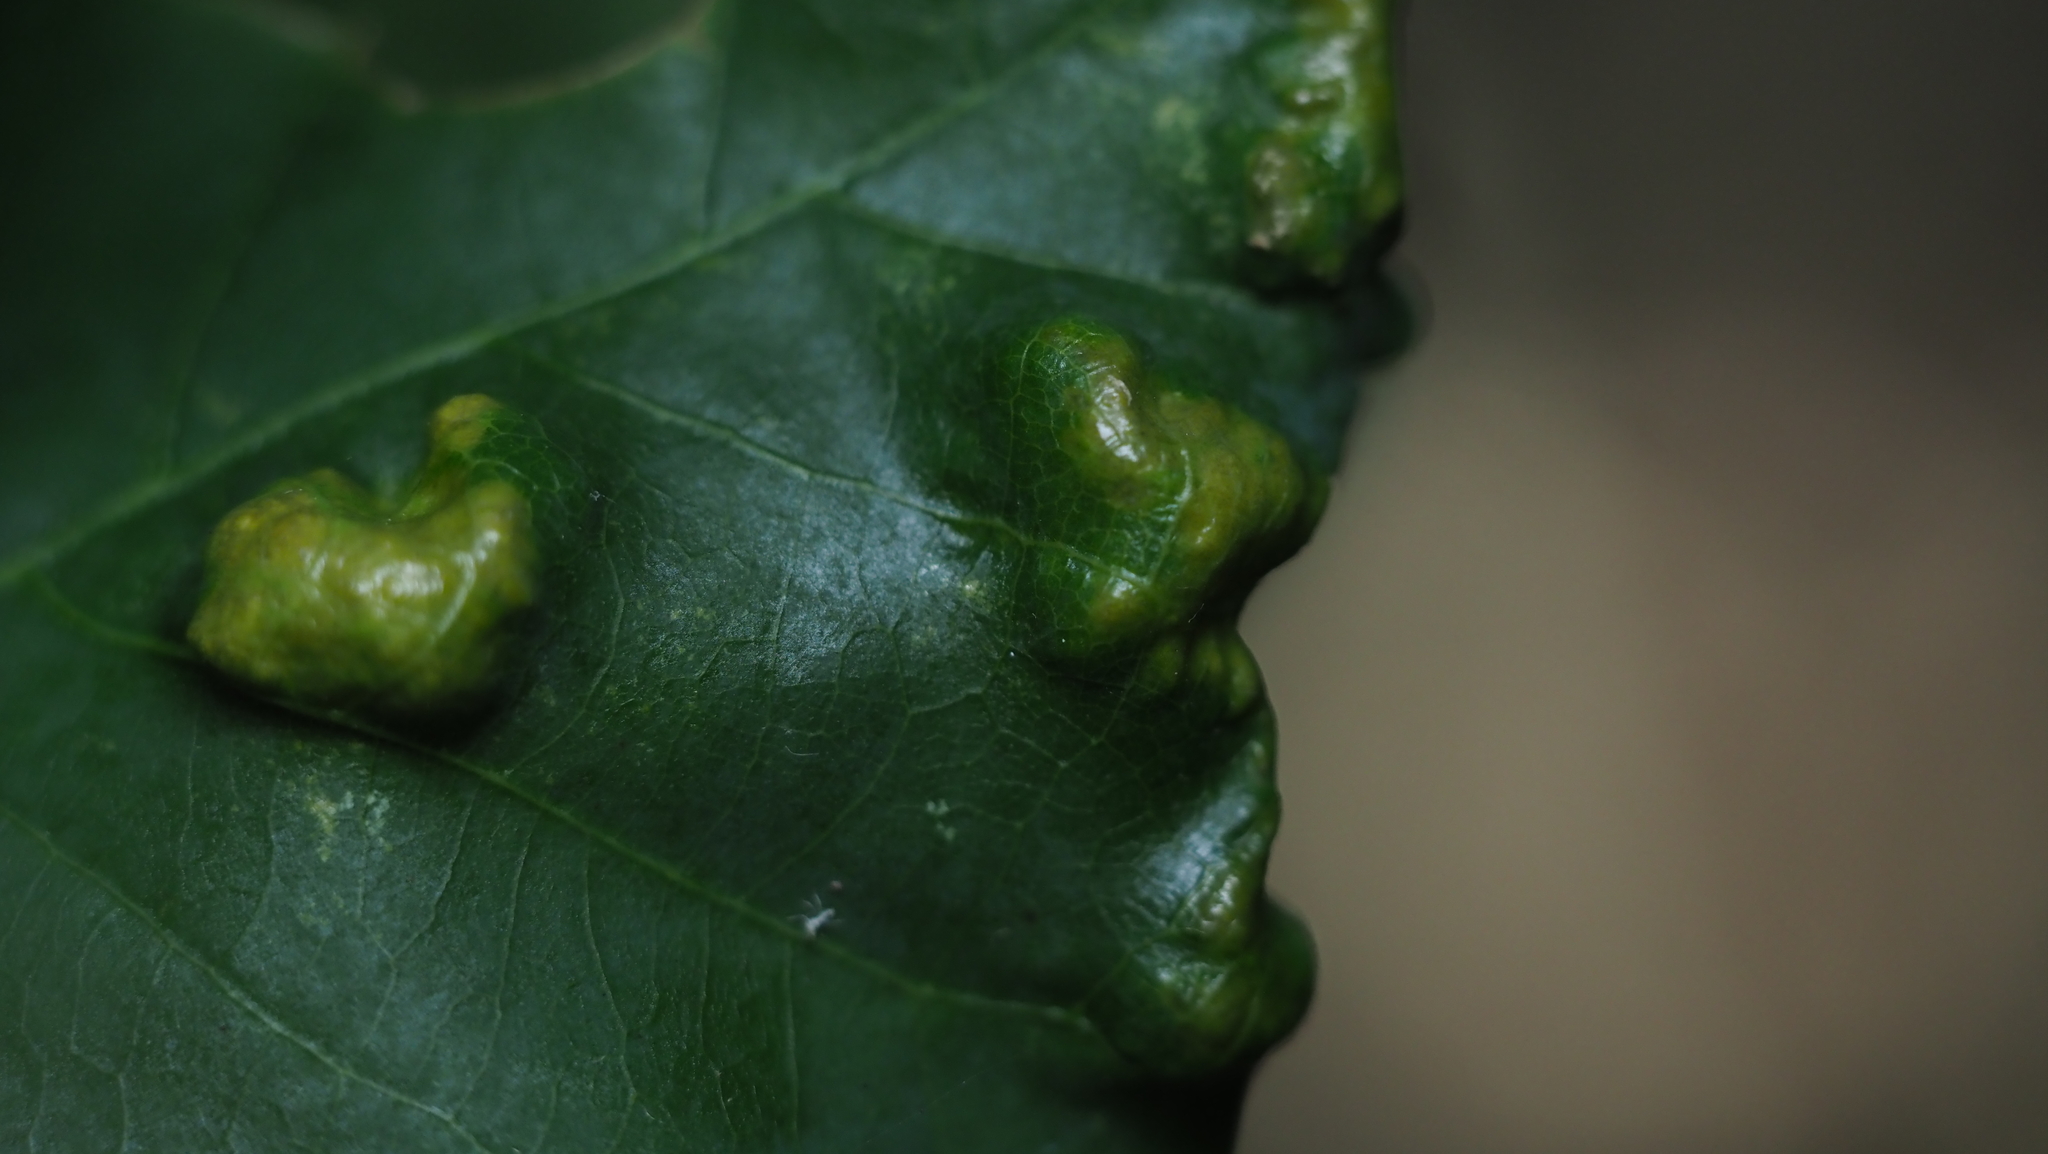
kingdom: Animalia
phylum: Arthropoda
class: Arachnida
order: Trombidiformes
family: Eriophyidae
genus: Aceria
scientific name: Aceria
